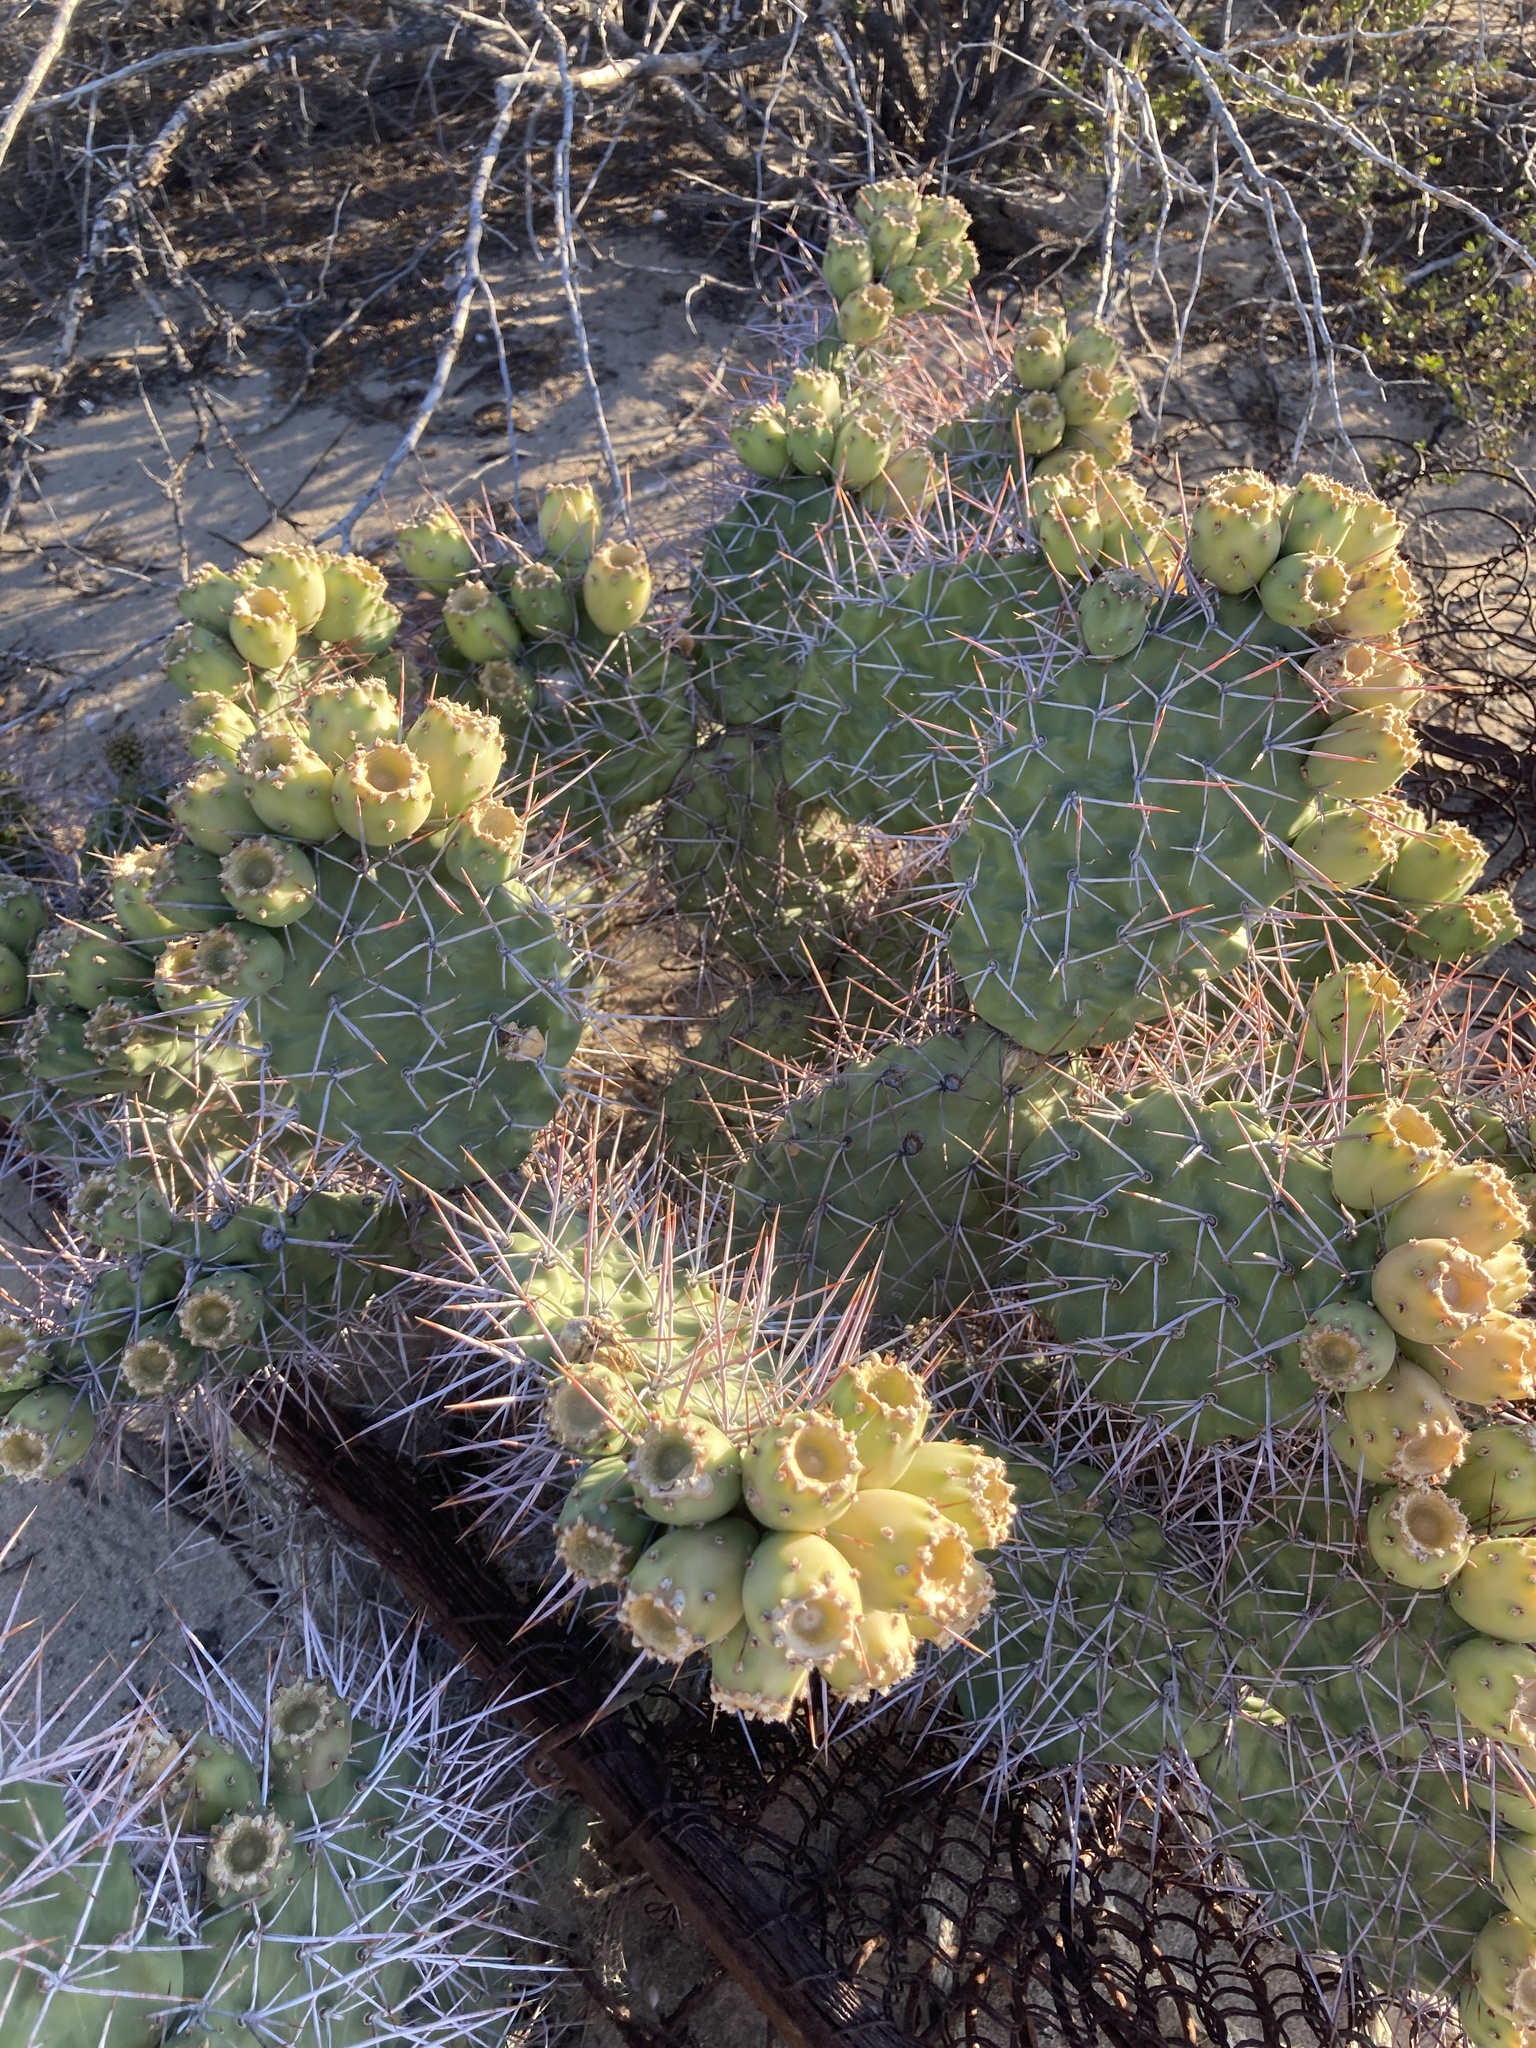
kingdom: Plantae
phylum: Tracheophyta
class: Magnoliopsida
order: Caryophyllales
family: Cactaceae
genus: Opuntia
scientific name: Opuntia sulphurea
